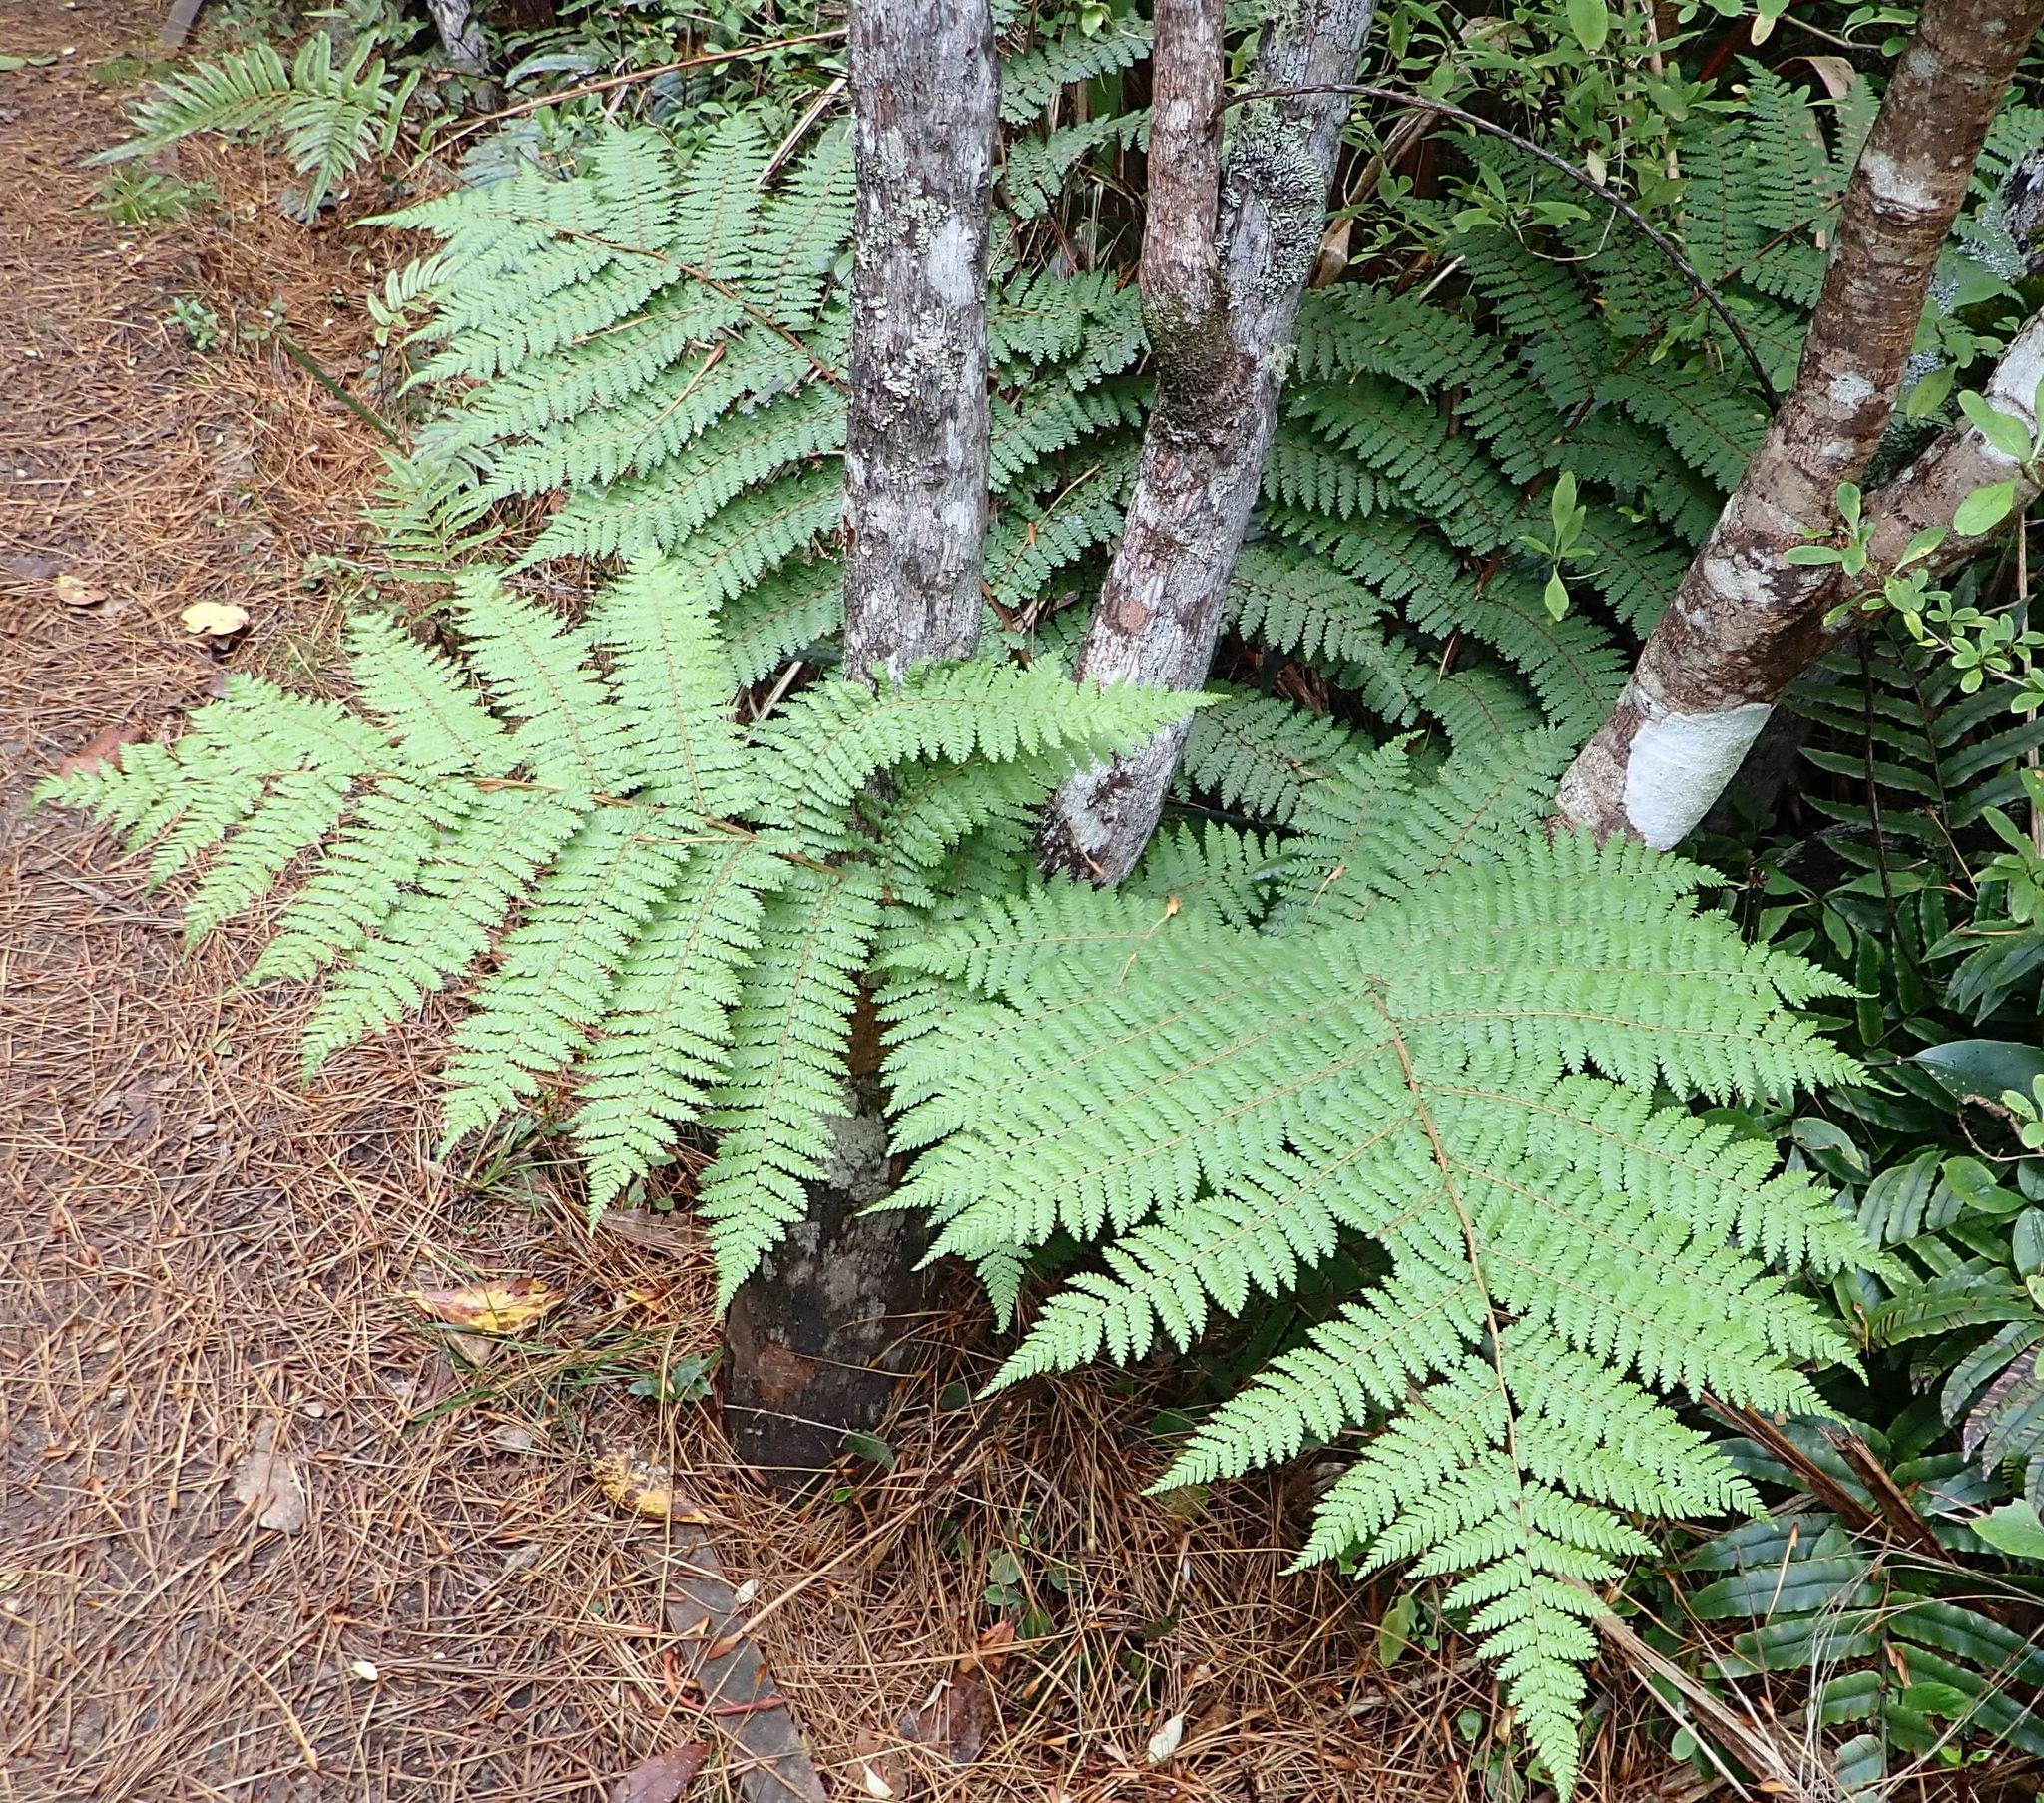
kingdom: Plantae
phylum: Tracheophyta
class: Polypodiopsida
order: Cyatheales
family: Cyatheaceae
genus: Alsophila
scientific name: Alsophila colensoi
